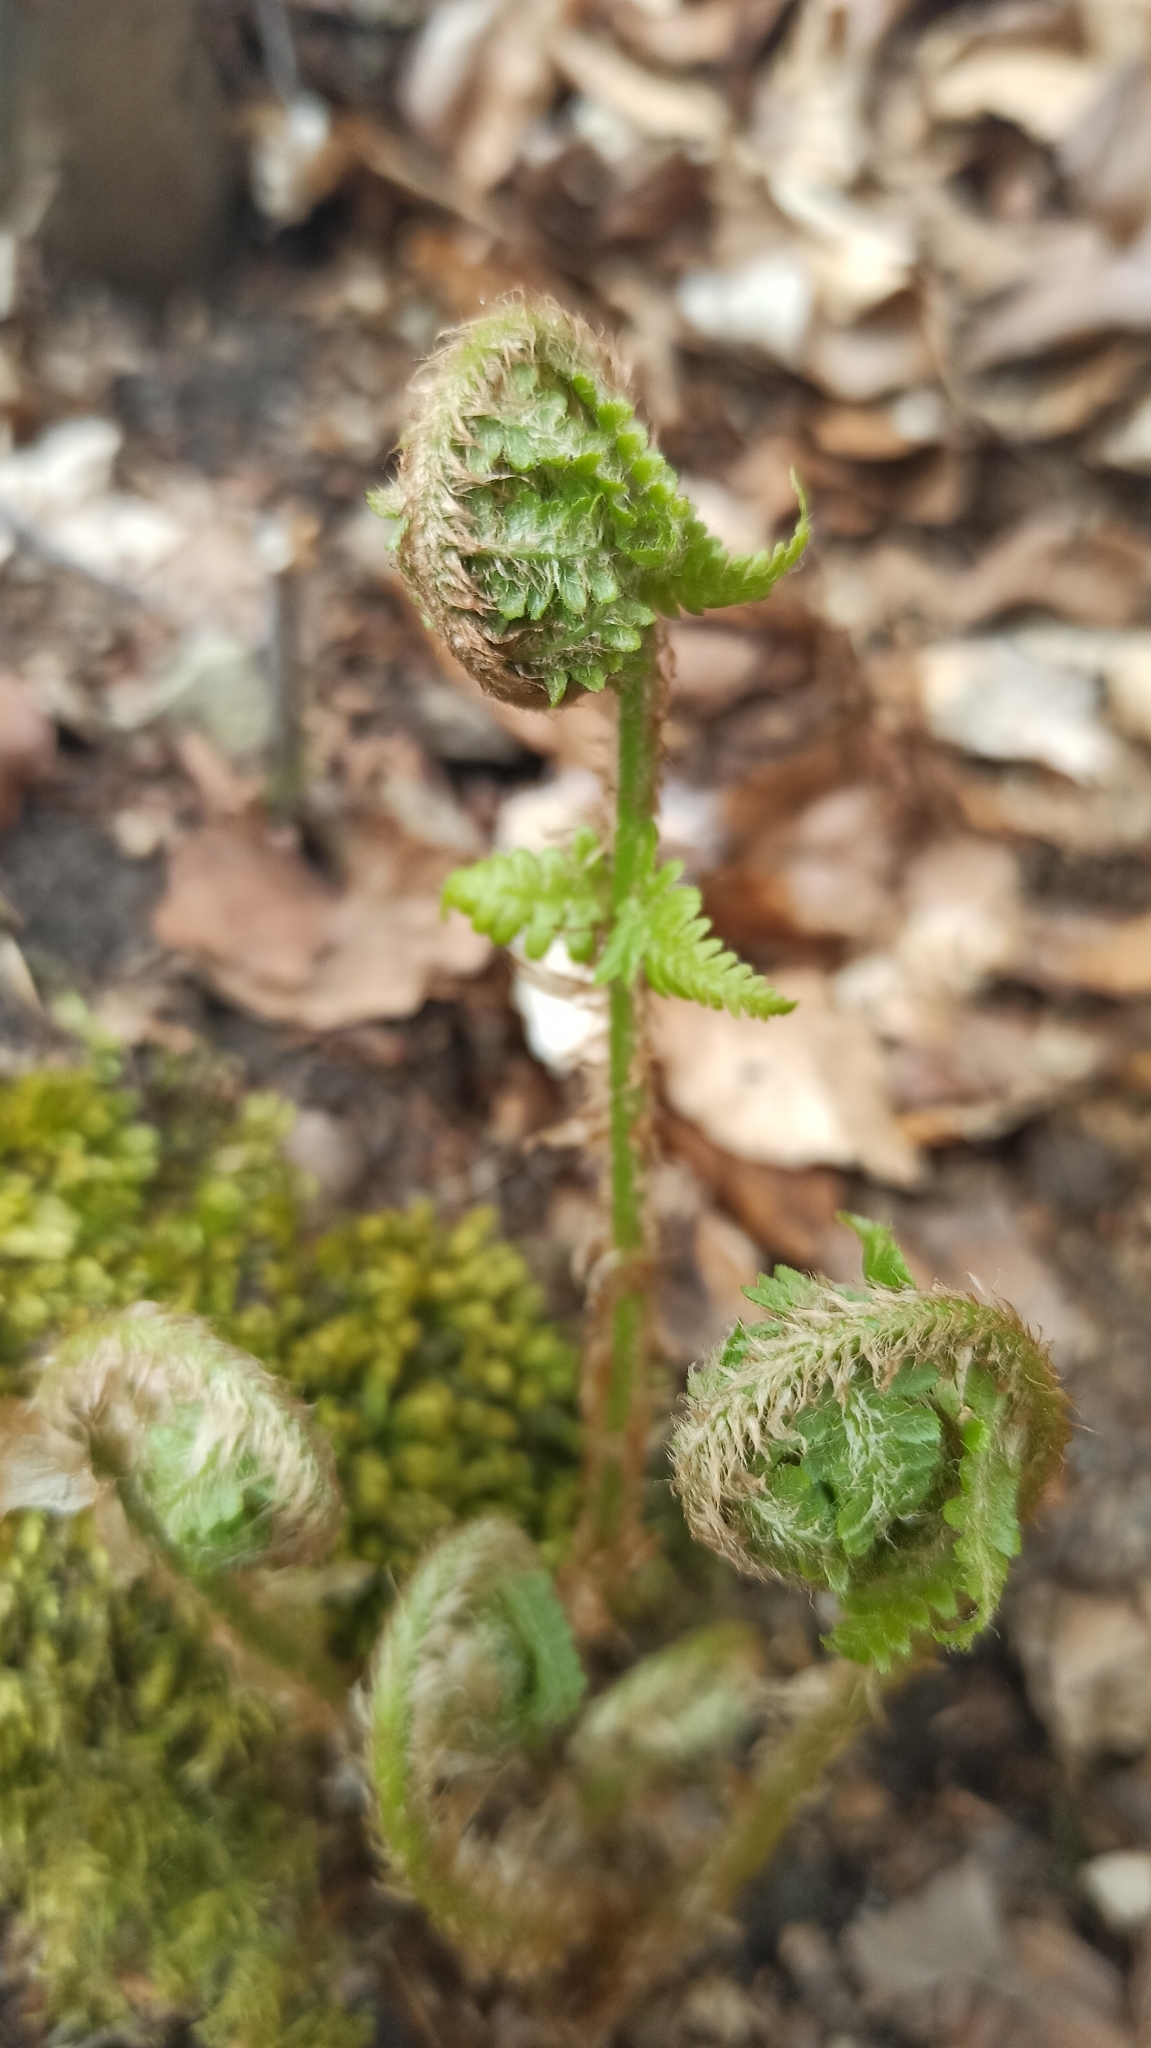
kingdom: Plantae
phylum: Tracheophyta
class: Polypodiopsida
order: Polypodiales
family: Dryopteridaceae
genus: Dryopteris
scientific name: Dryopteris filix-mas
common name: Male fern
